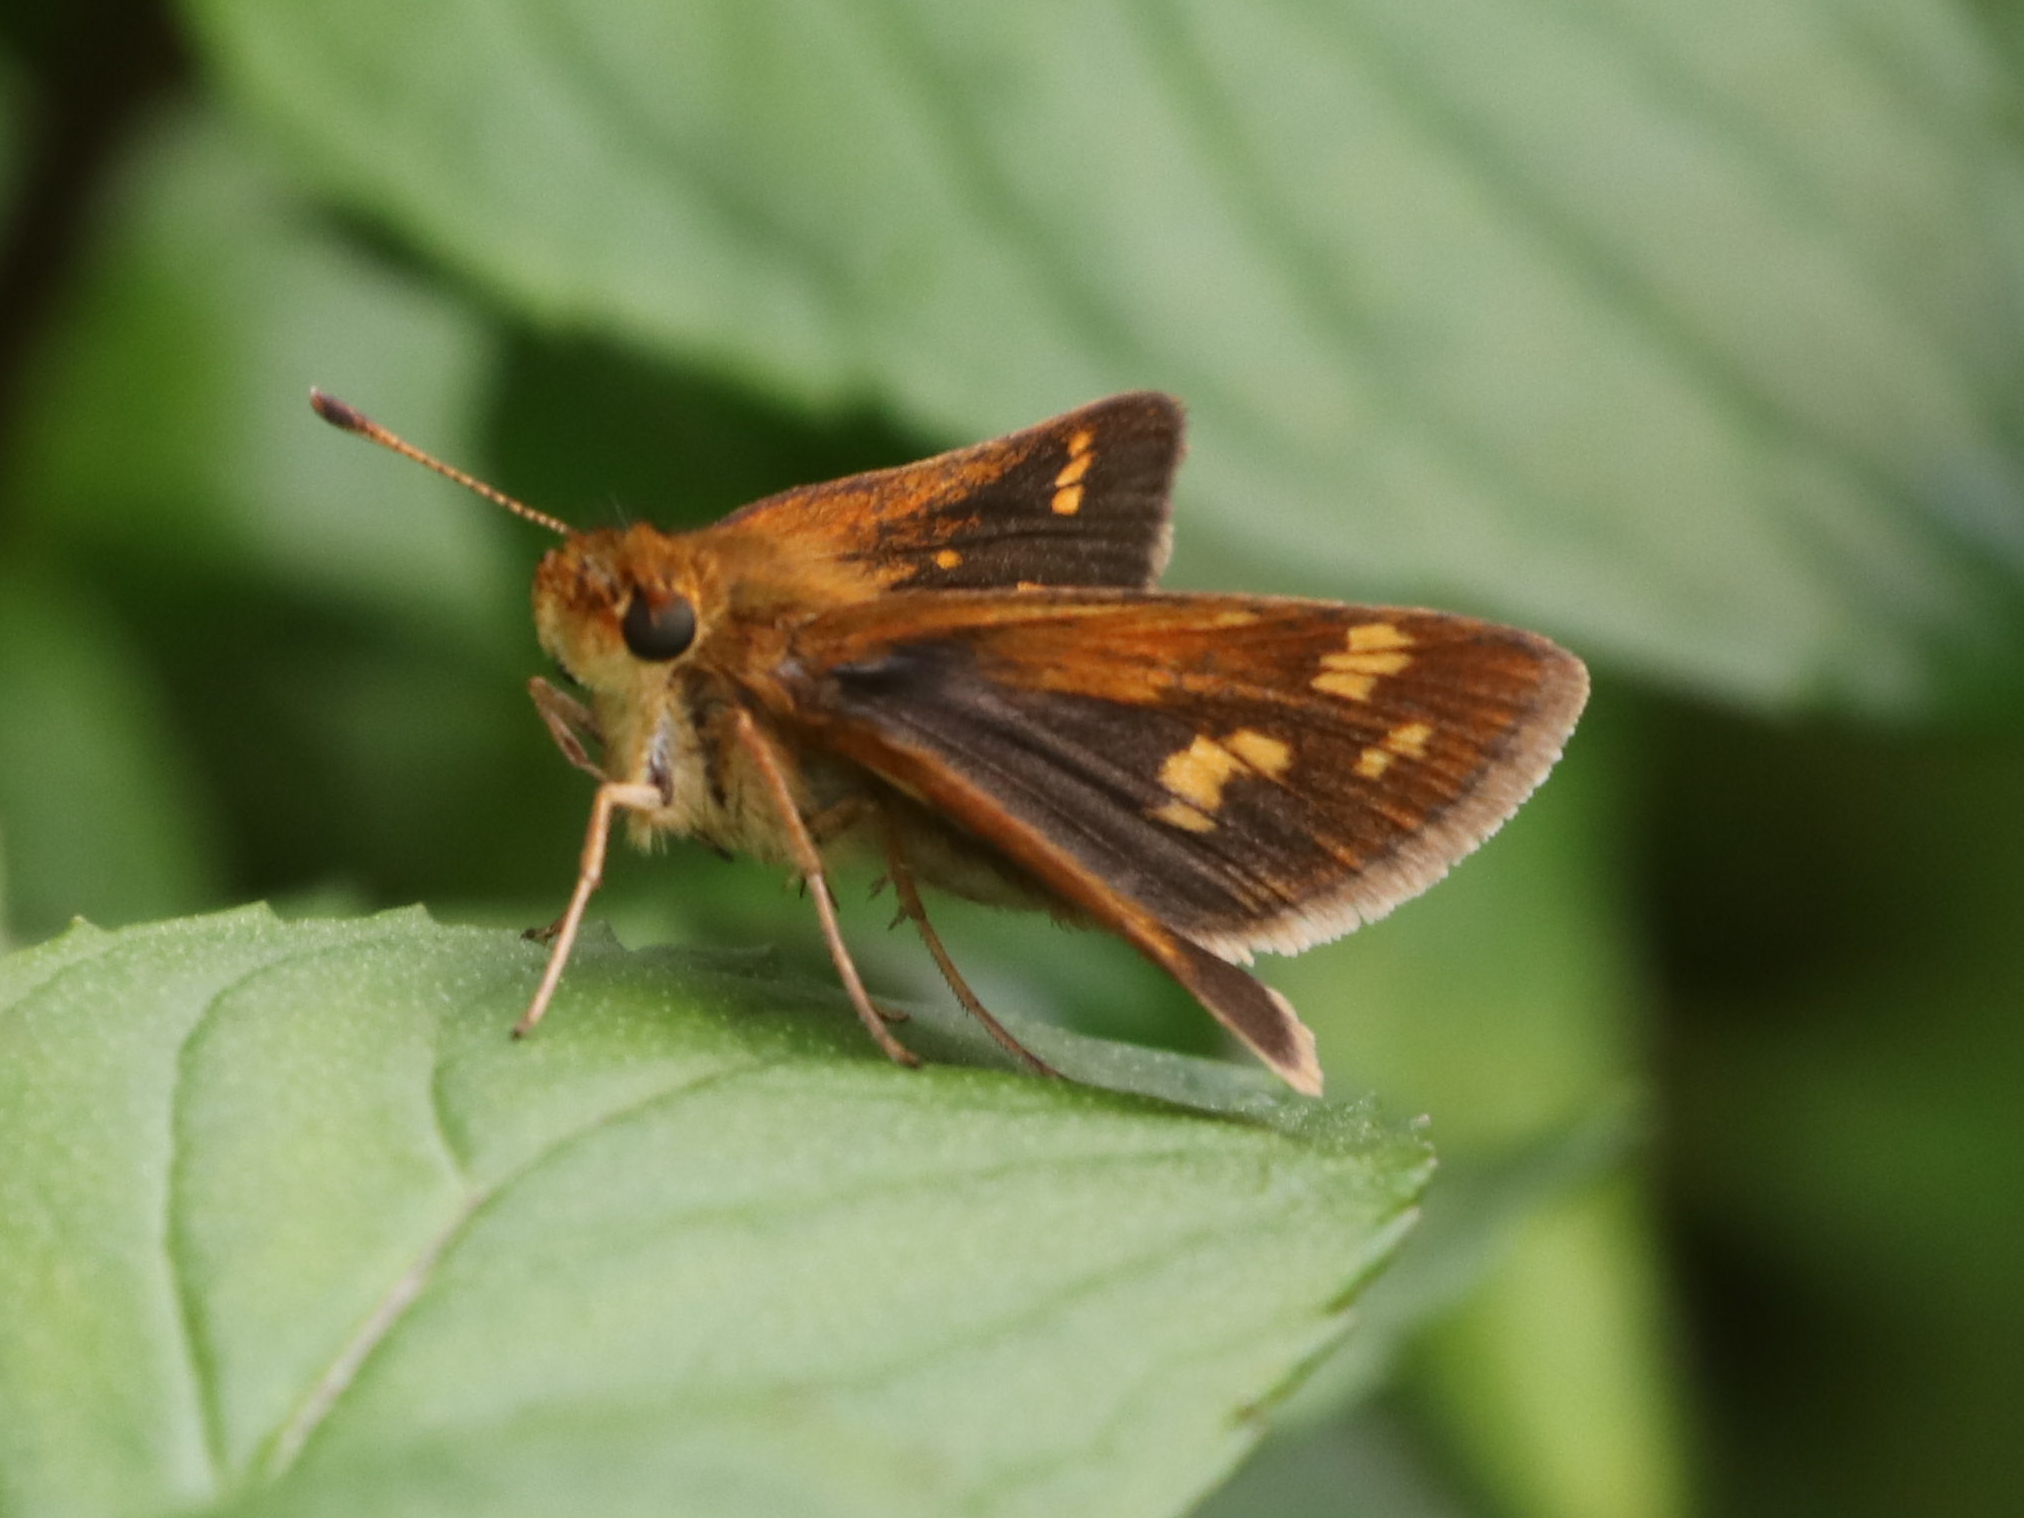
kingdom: Animalia
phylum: Arthropoda
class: Insecta
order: Lepidoptera
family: Hesperiidae
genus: Polites
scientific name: Polites coras
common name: Peck's skipper
